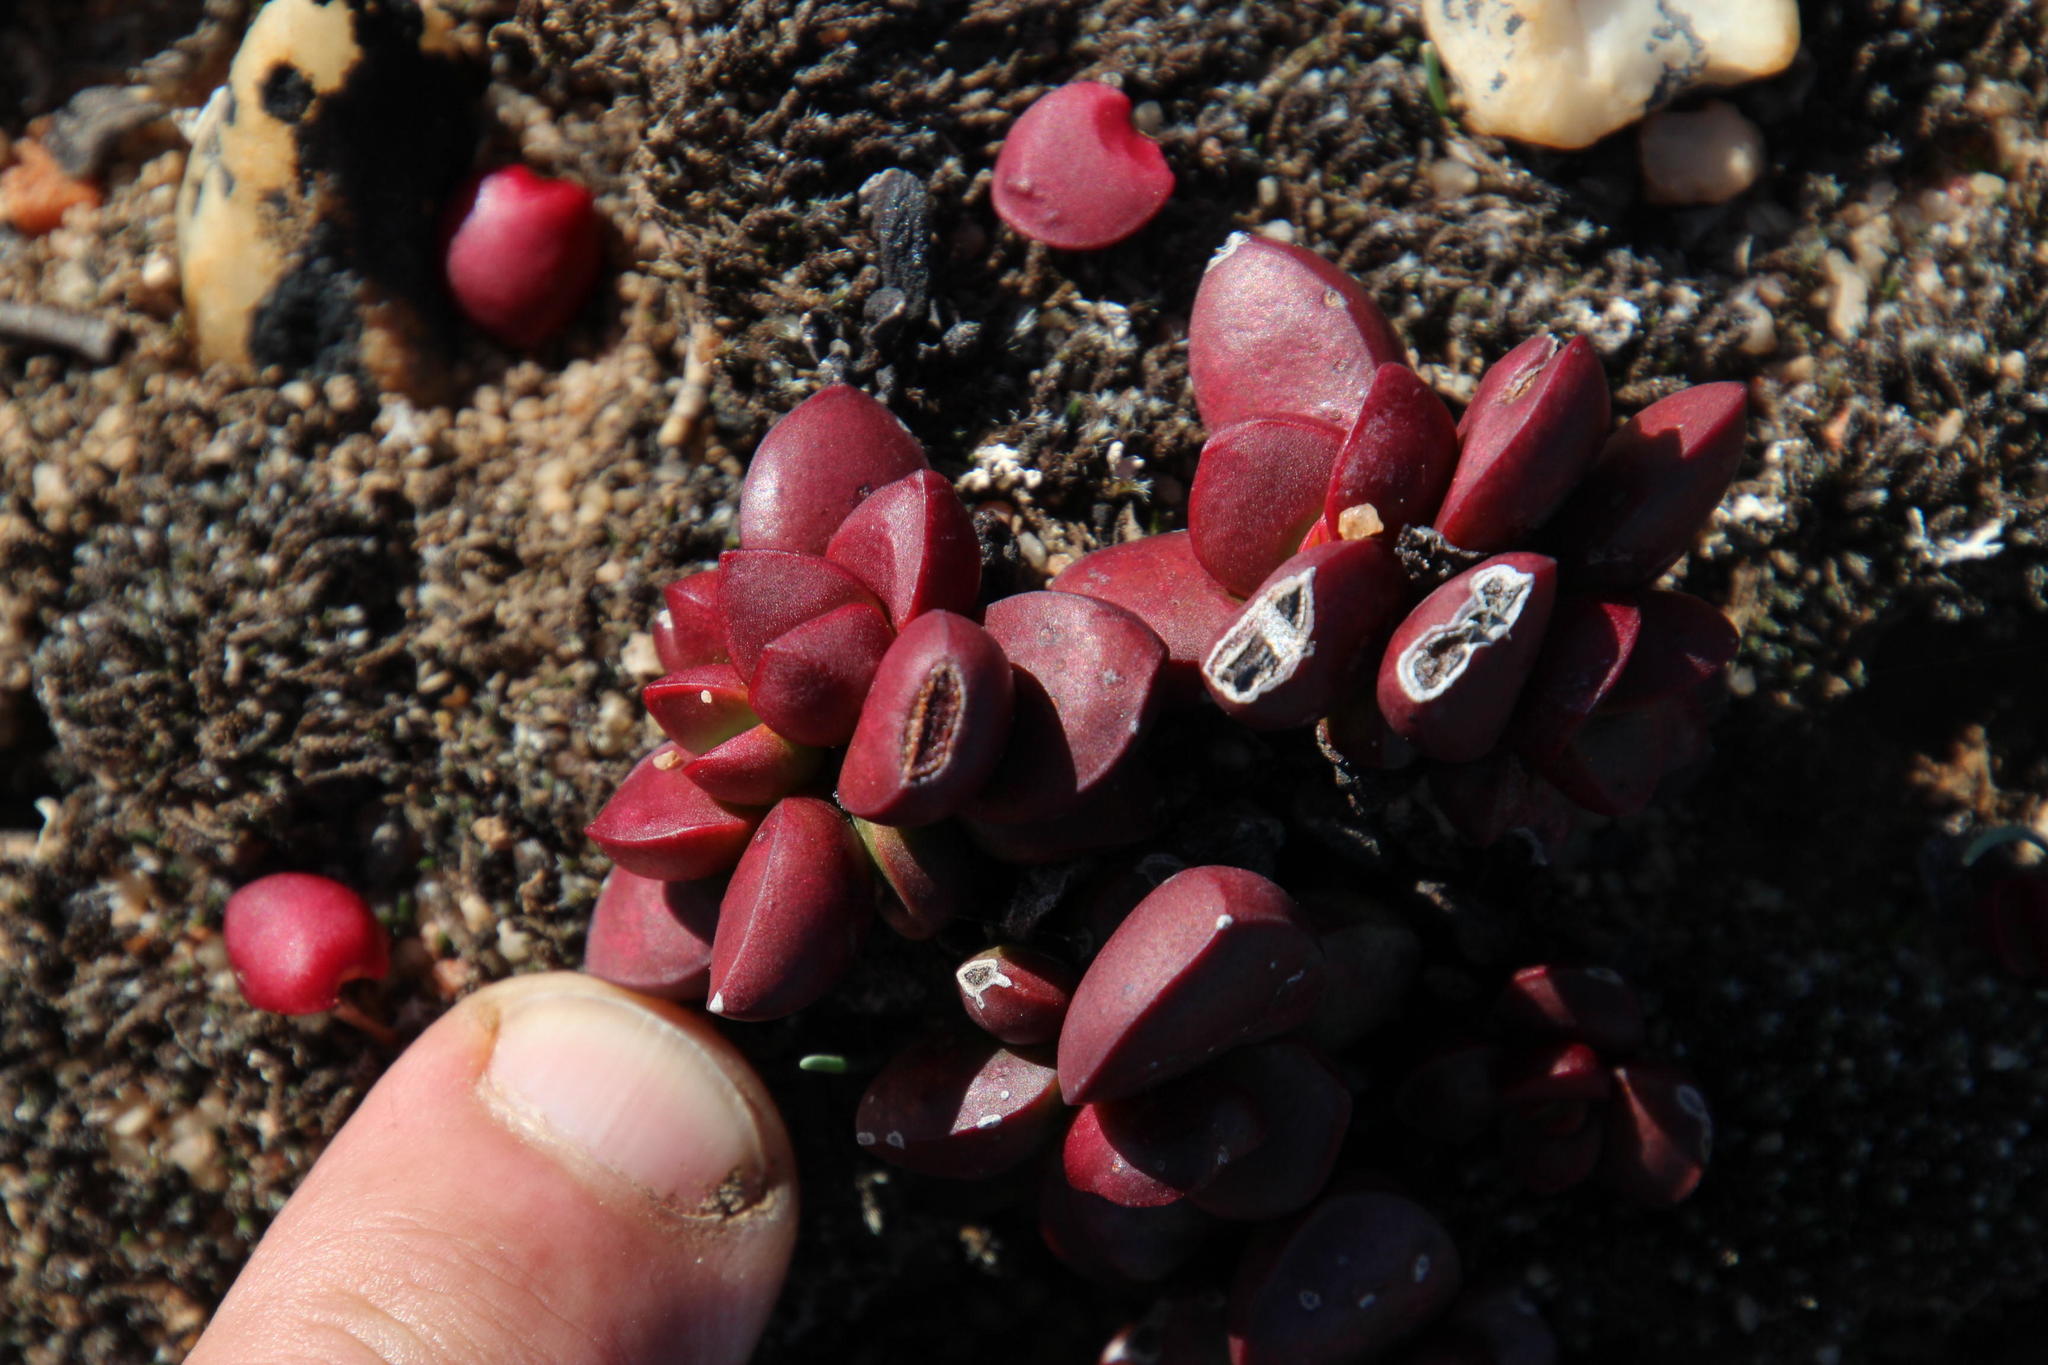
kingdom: Plantae
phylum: Tracheophyta
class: Magnoliopsida
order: Saxifragales
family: Crassulaceae
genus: Crassula
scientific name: Crassula clavata
